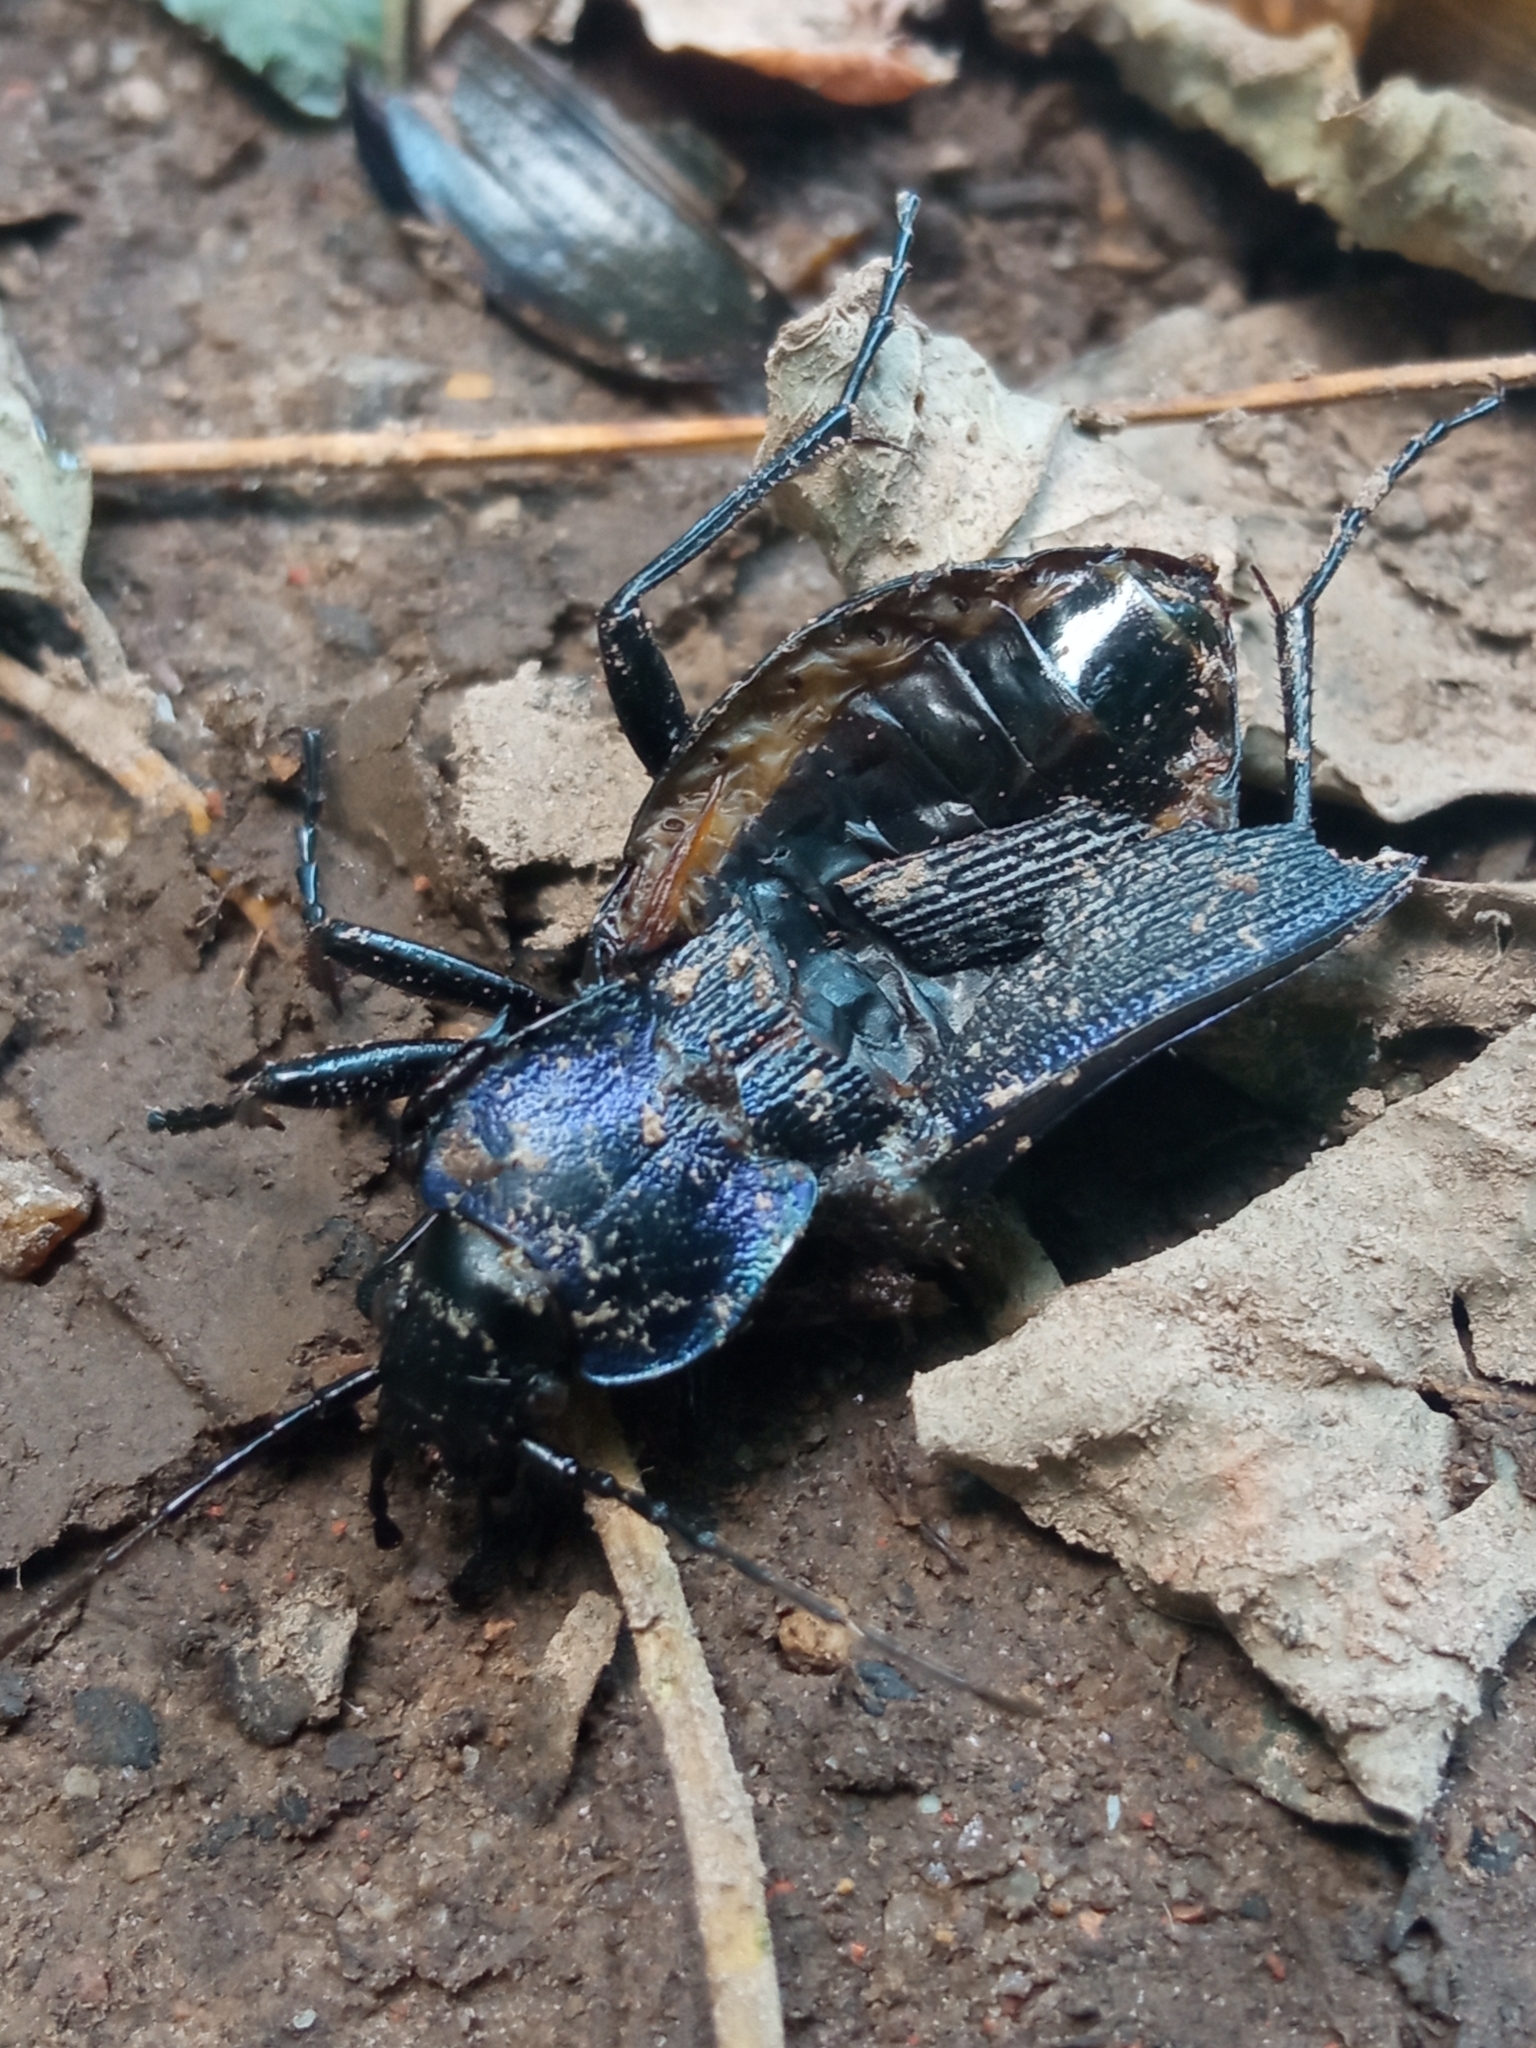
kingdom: Animalia
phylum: Arthropoda
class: Insecta
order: Coleoptera
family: Carabidae
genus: Carabus
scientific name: Carabus problematicus
